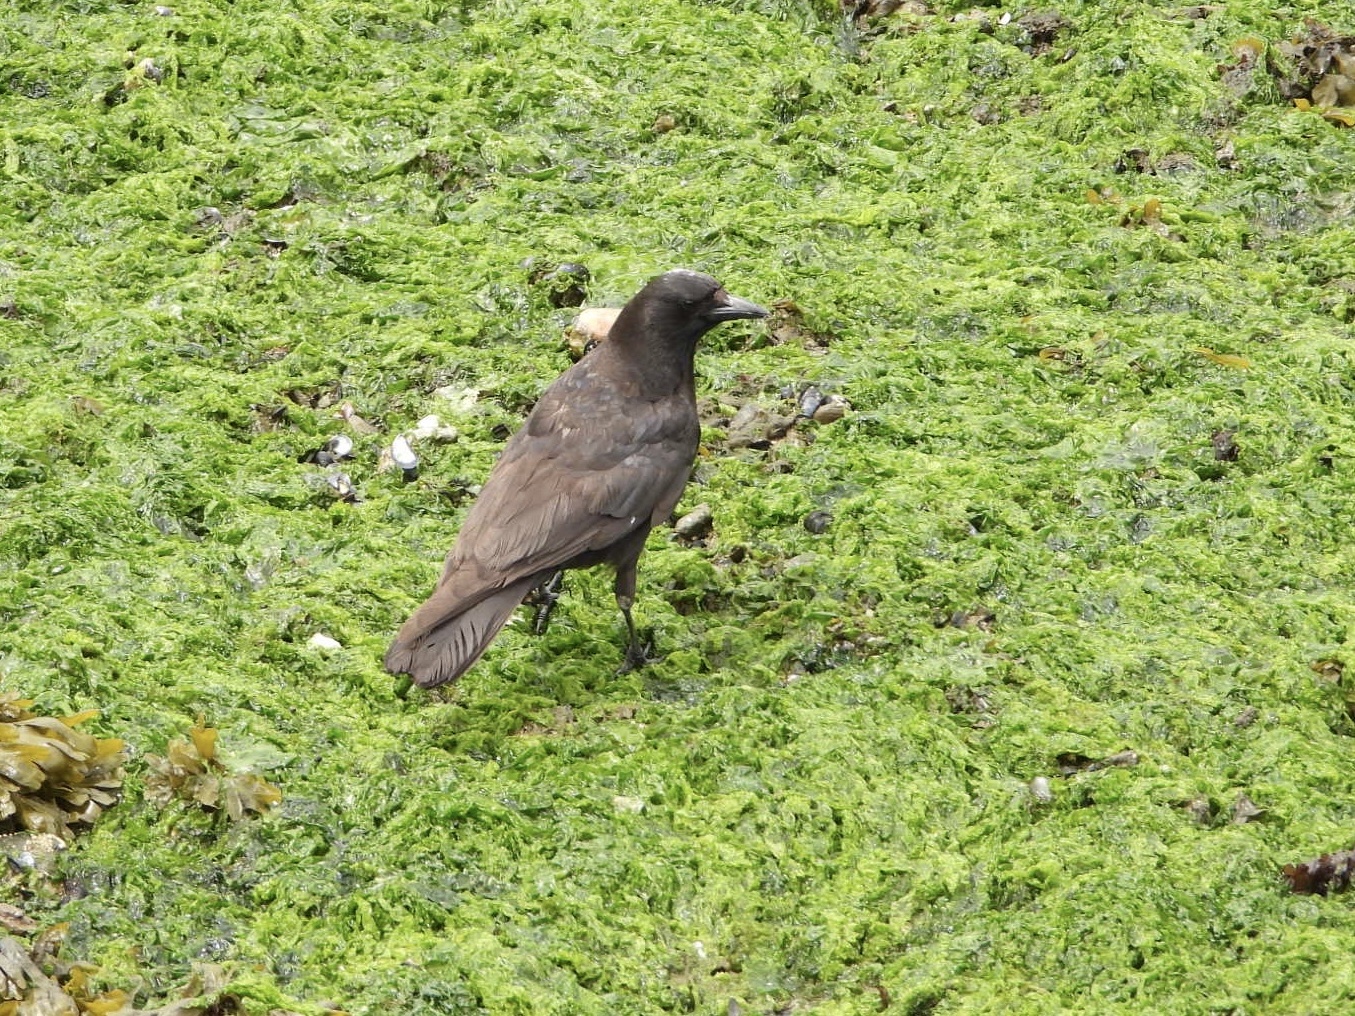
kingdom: Animalia
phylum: Chordata
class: Aves
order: Passeriformes
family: Corvidae
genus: Corvus
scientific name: Corvus brachyrhynchos
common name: American crow
